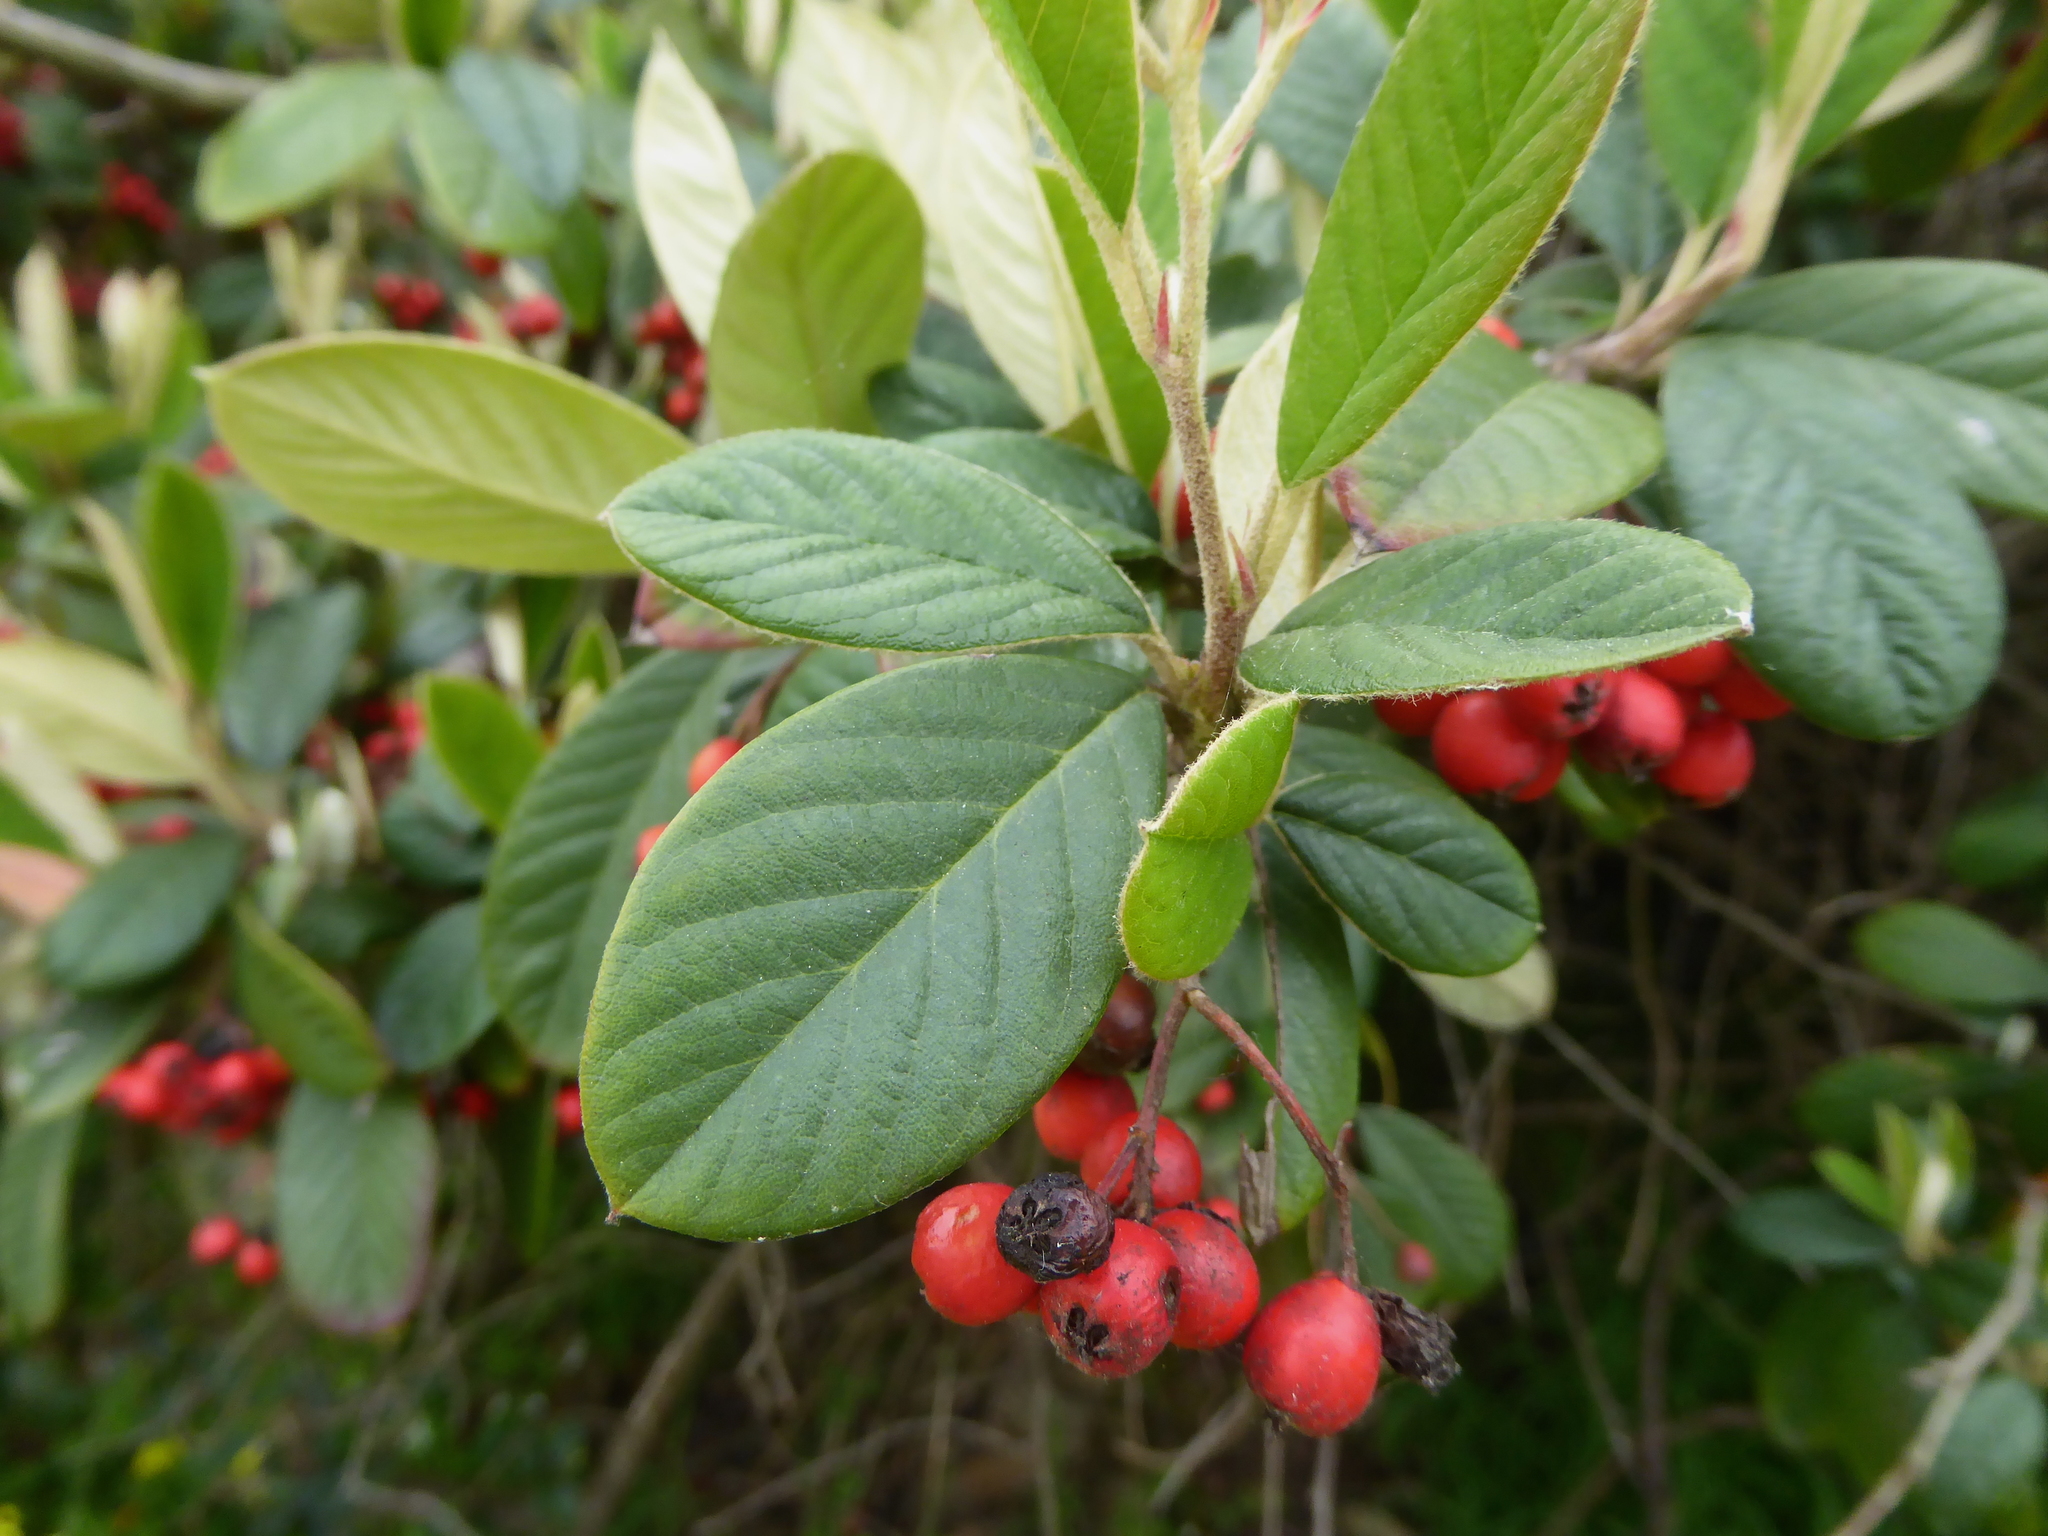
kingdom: Plantae
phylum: Tracheophyta
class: Magnoliopsida
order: Rosales
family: Rosaceae
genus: Cotoneaster
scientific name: Cotoneaster coriaceus
